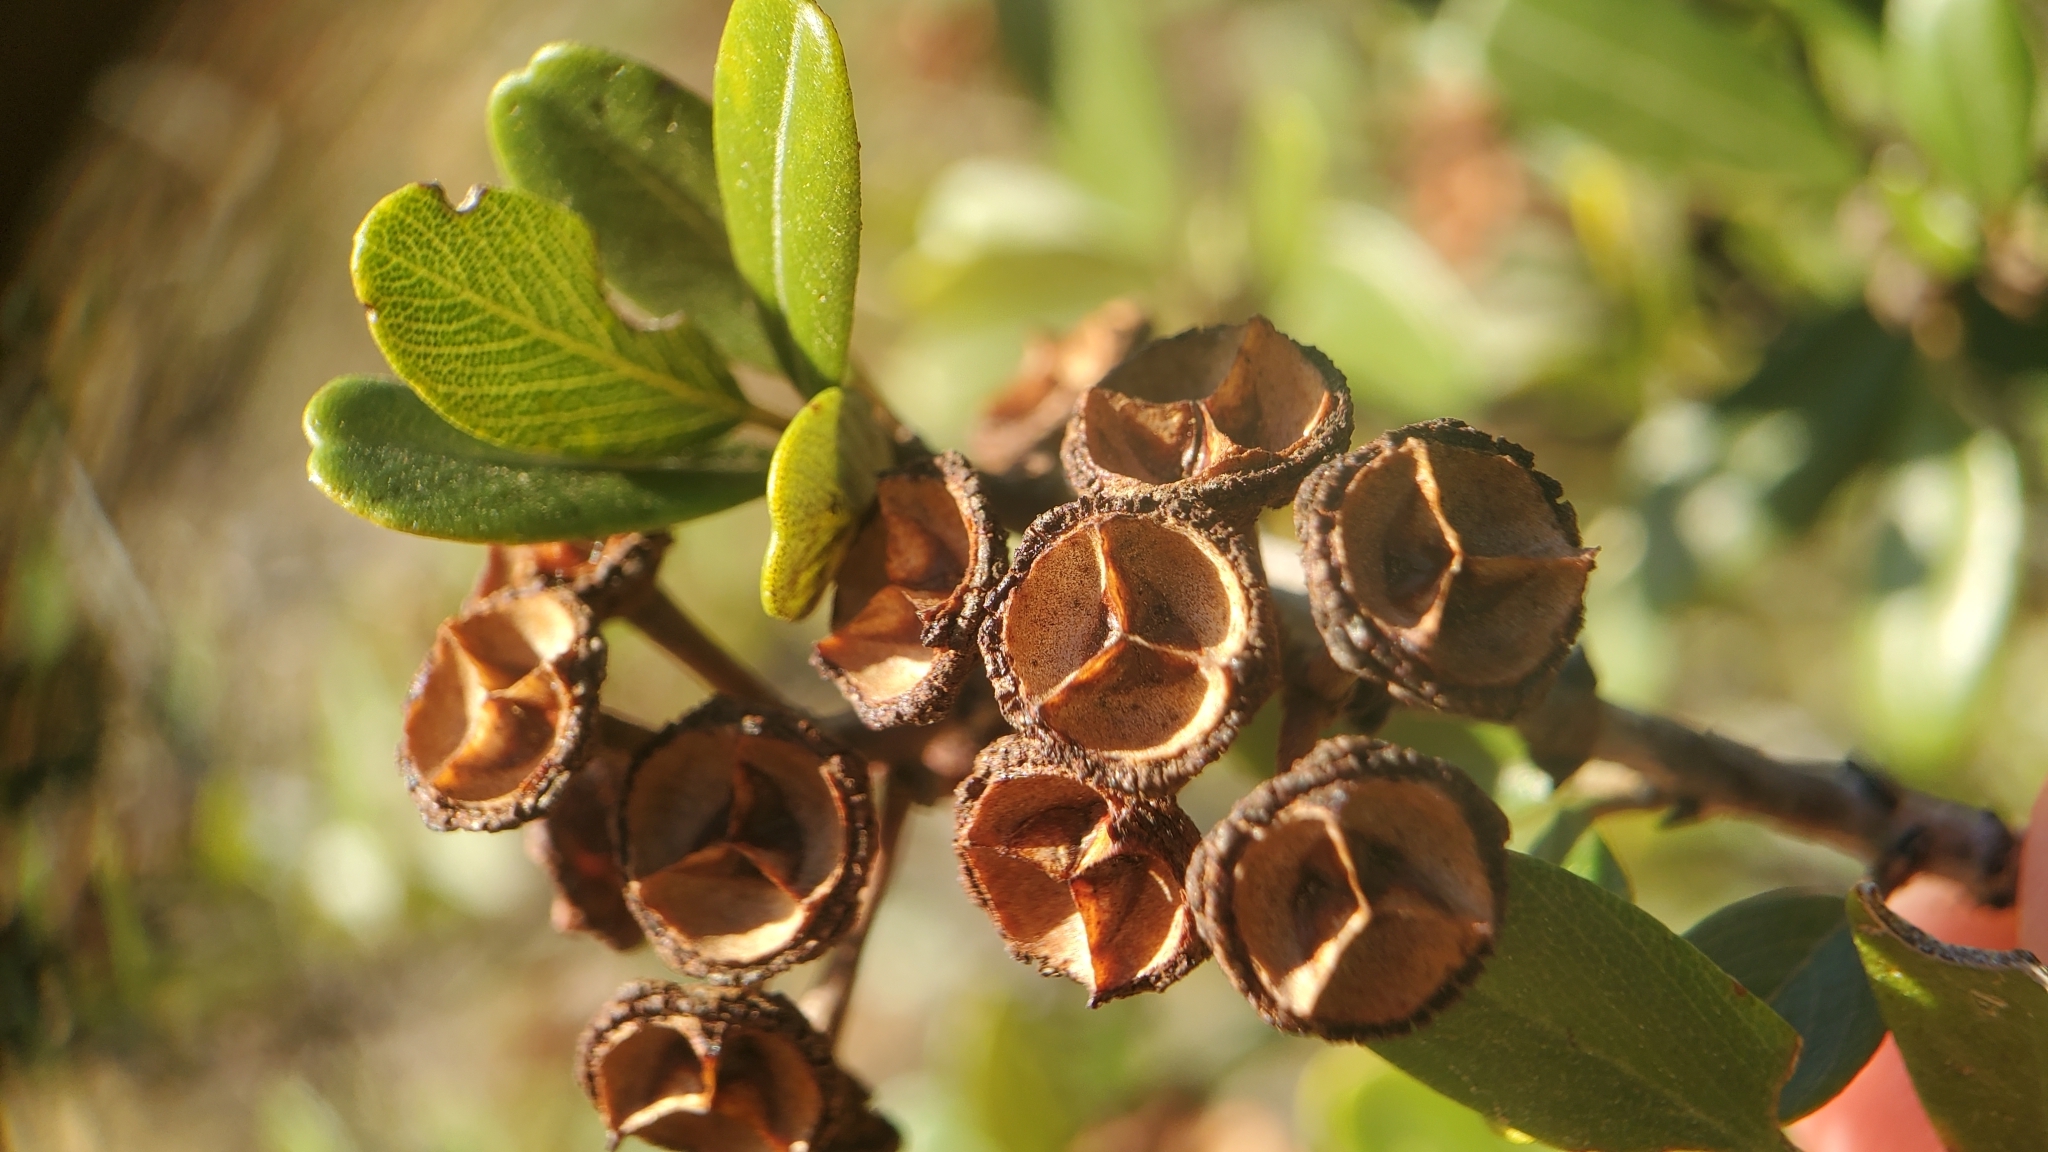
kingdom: Plantae
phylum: Tracheophyta
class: Magnoliopsida
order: Rosales
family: Rhamnaceae
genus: Ceanothus
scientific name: Ceanothus megacarpus
